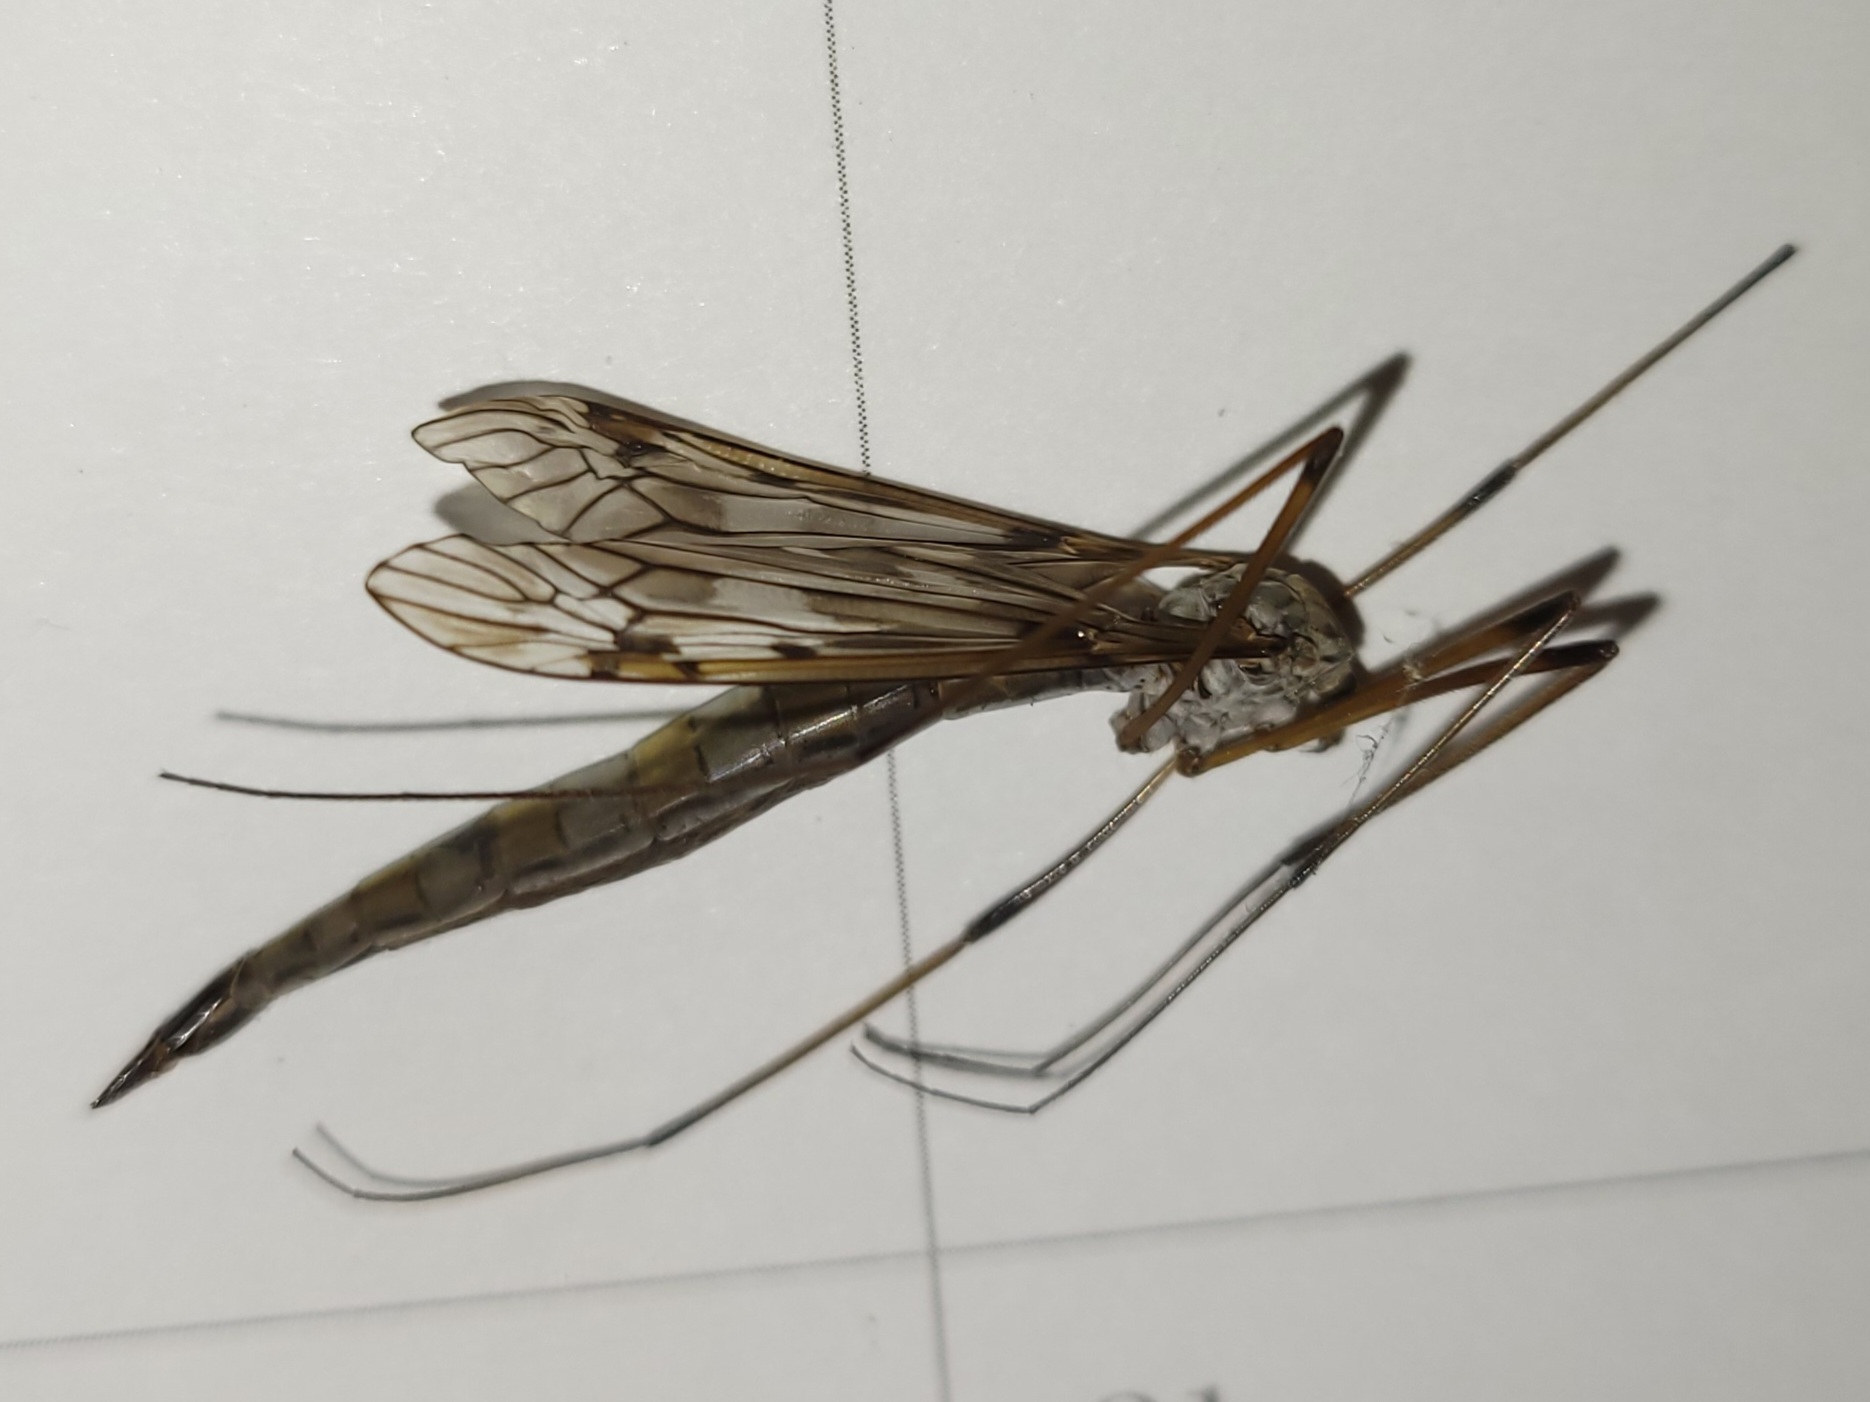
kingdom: Animalia
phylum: Arthropoda
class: Insecta
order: Diptera
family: Tipulidae
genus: Tipula
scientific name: Tipula longiventris
